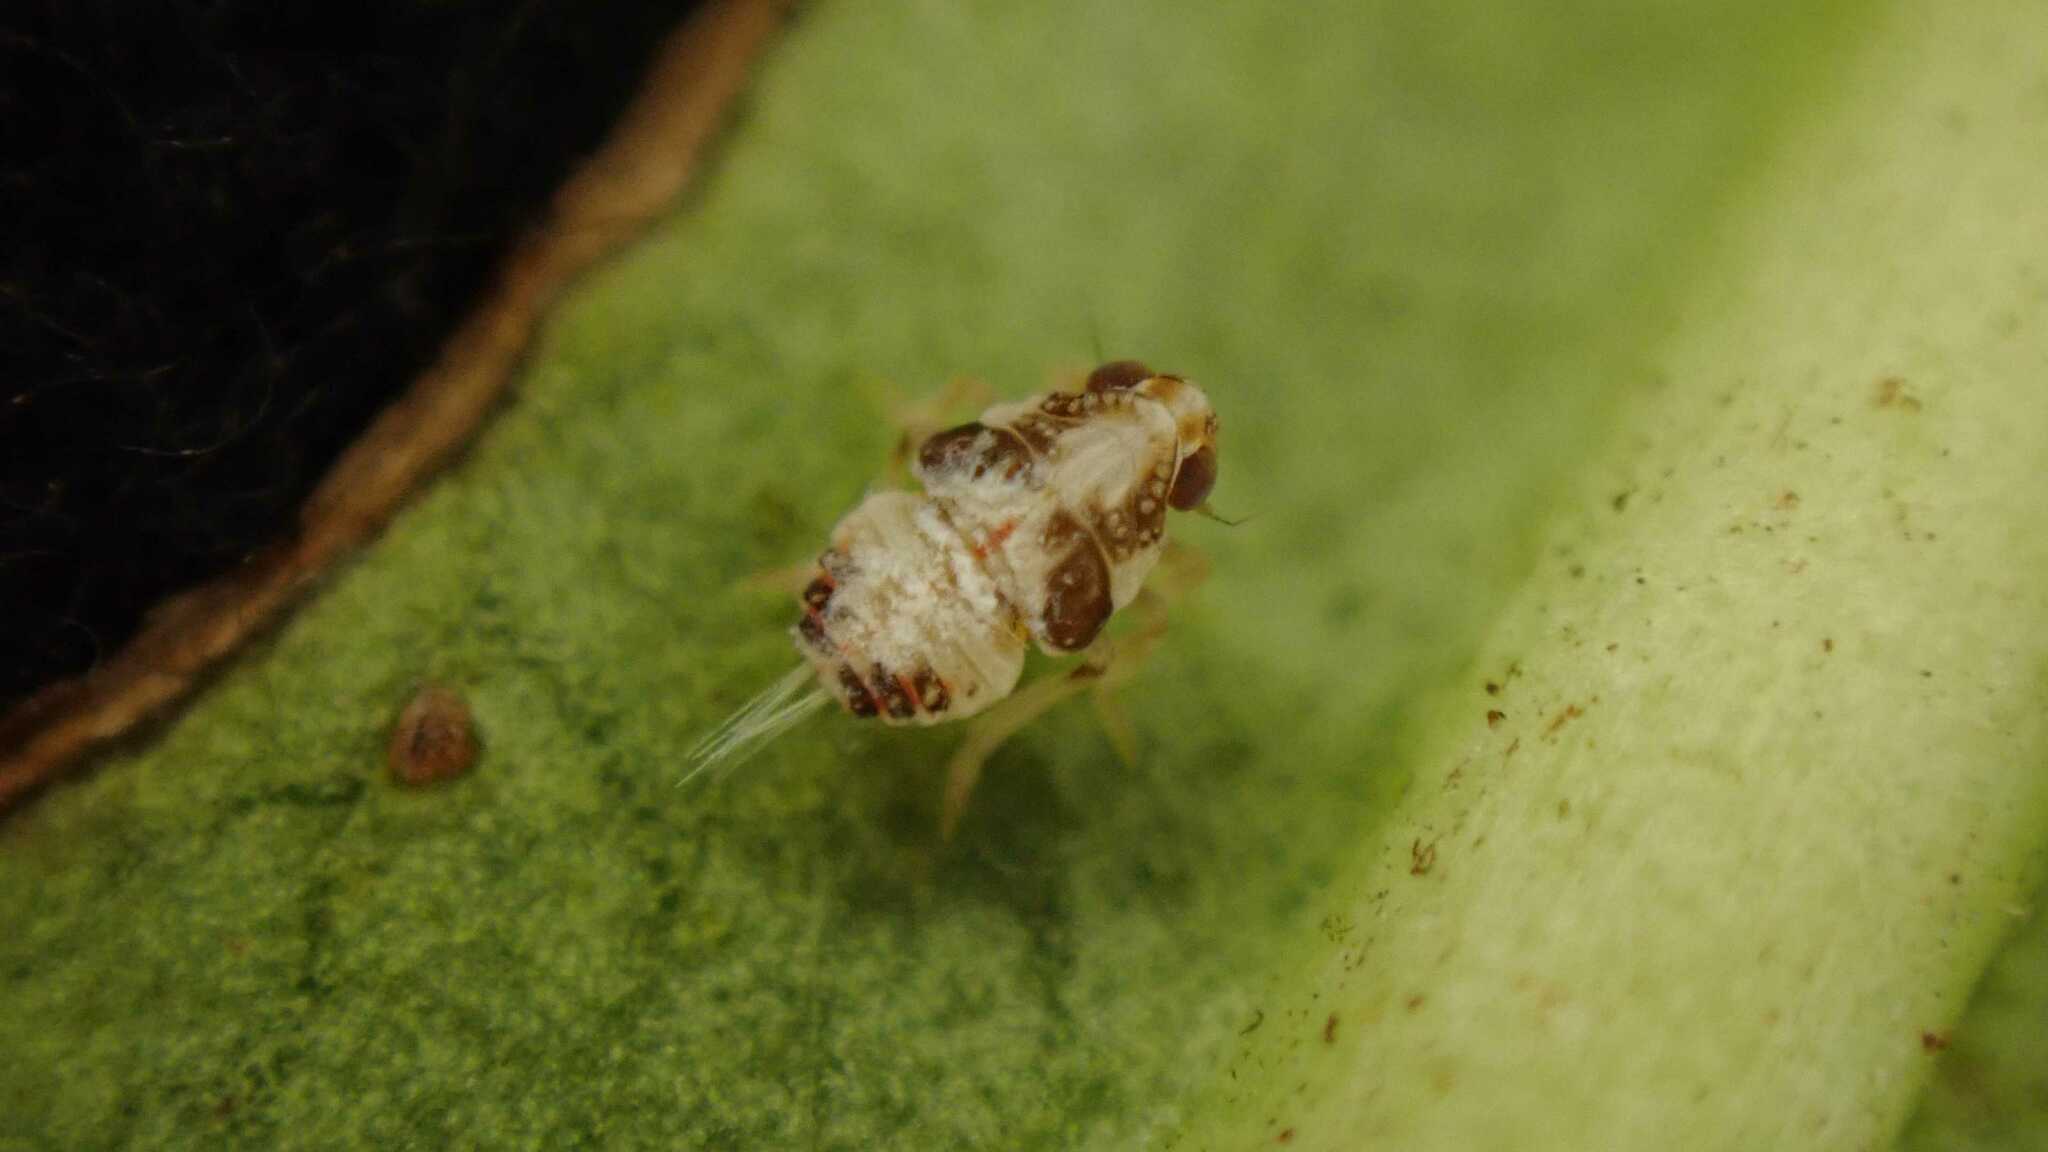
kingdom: Animalia
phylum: Arthropoda
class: Insecta
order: Hemiptera
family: Issidae
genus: Issus
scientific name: Issus
